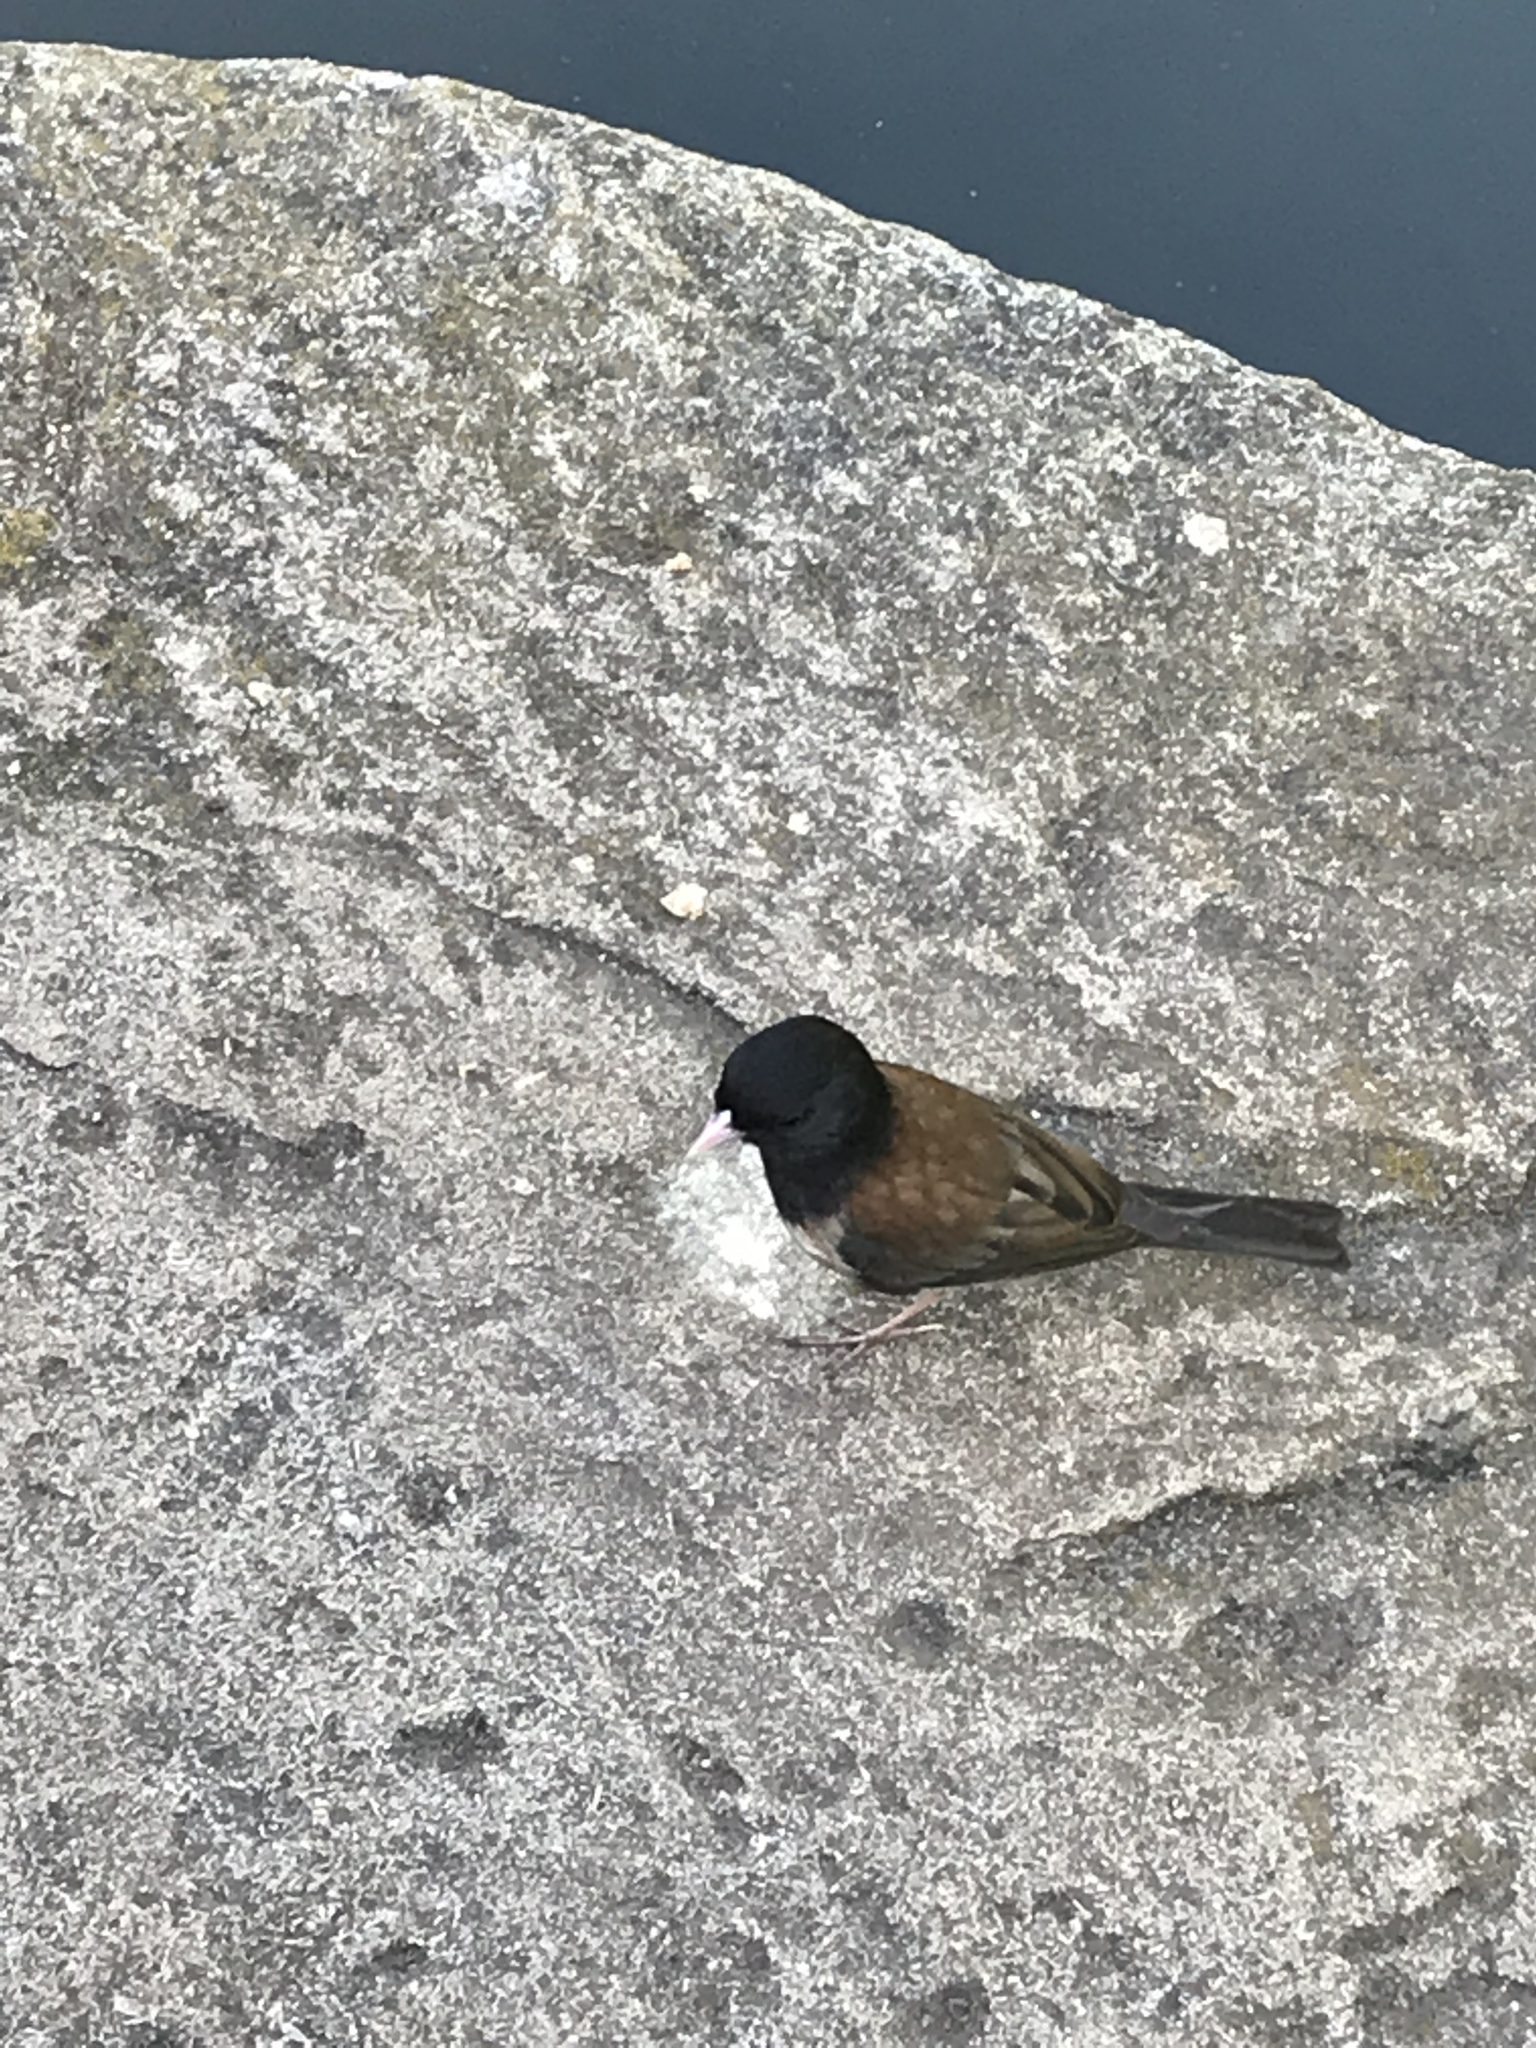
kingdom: Animalia
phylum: Chordata
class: Aves
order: Passeriformes
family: Passerellidae
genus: Junco
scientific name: Junco hyemalis
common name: Dark-eyed junco
